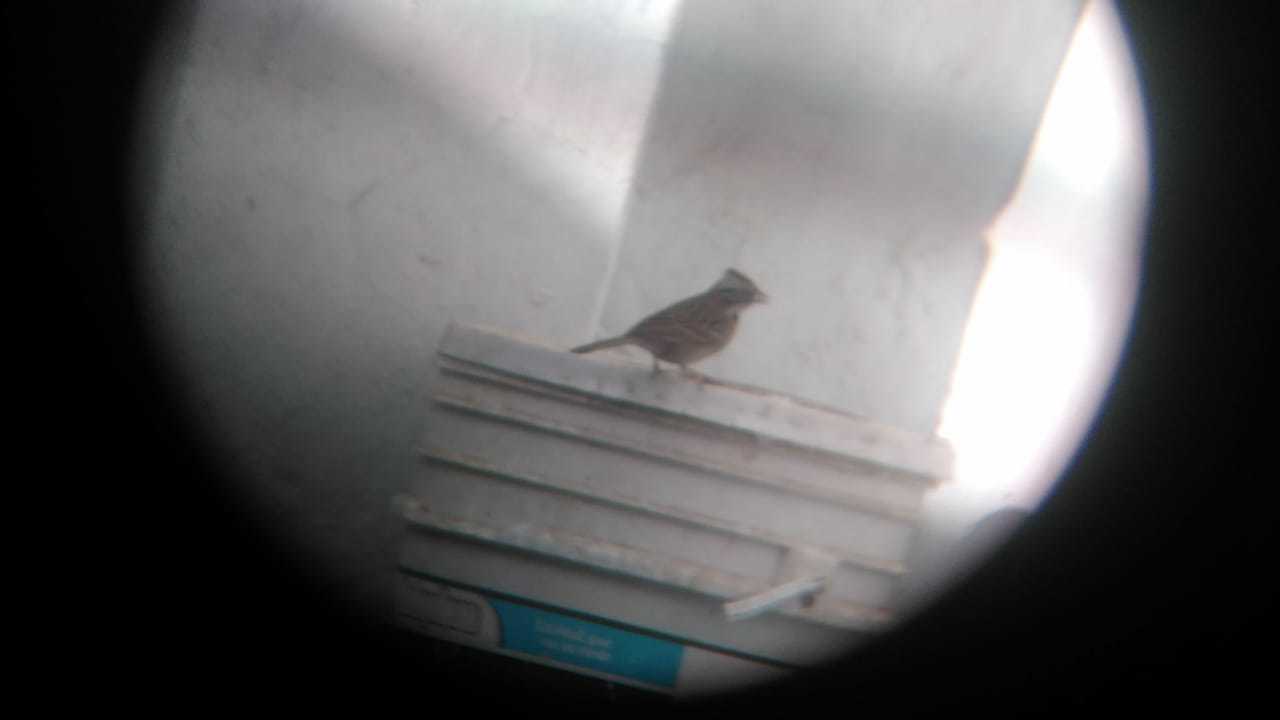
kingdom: Animalia
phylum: Chordata
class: Aves
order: Passeriformes
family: Passerellidae
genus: Zonotrichia
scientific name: Zonotrichia capensis
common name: Rufous-collared sparrow
